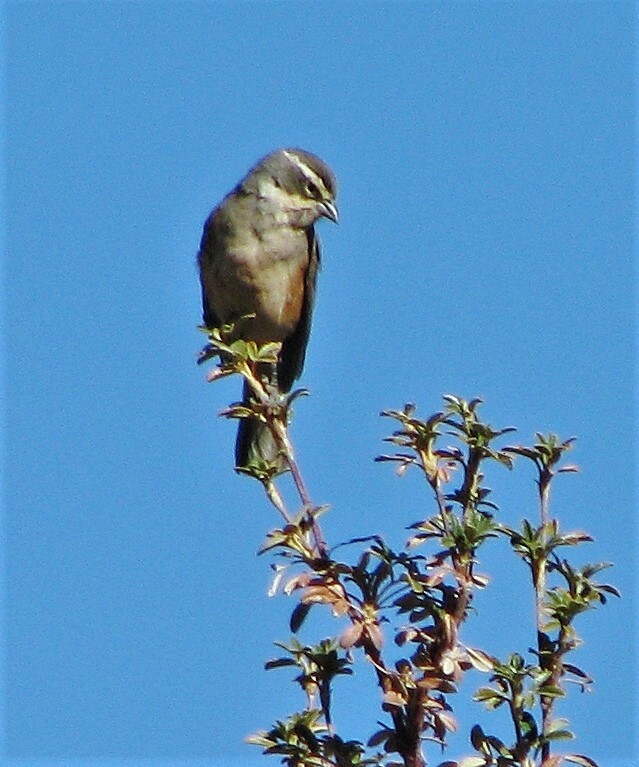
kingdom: Animalia
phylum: Chordata
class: Aves
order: Passeriformes
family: Thraupidae
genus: Poospizopsis
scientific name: Poospizopsis hypocondria
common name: Rufous-sided warbling-finch
